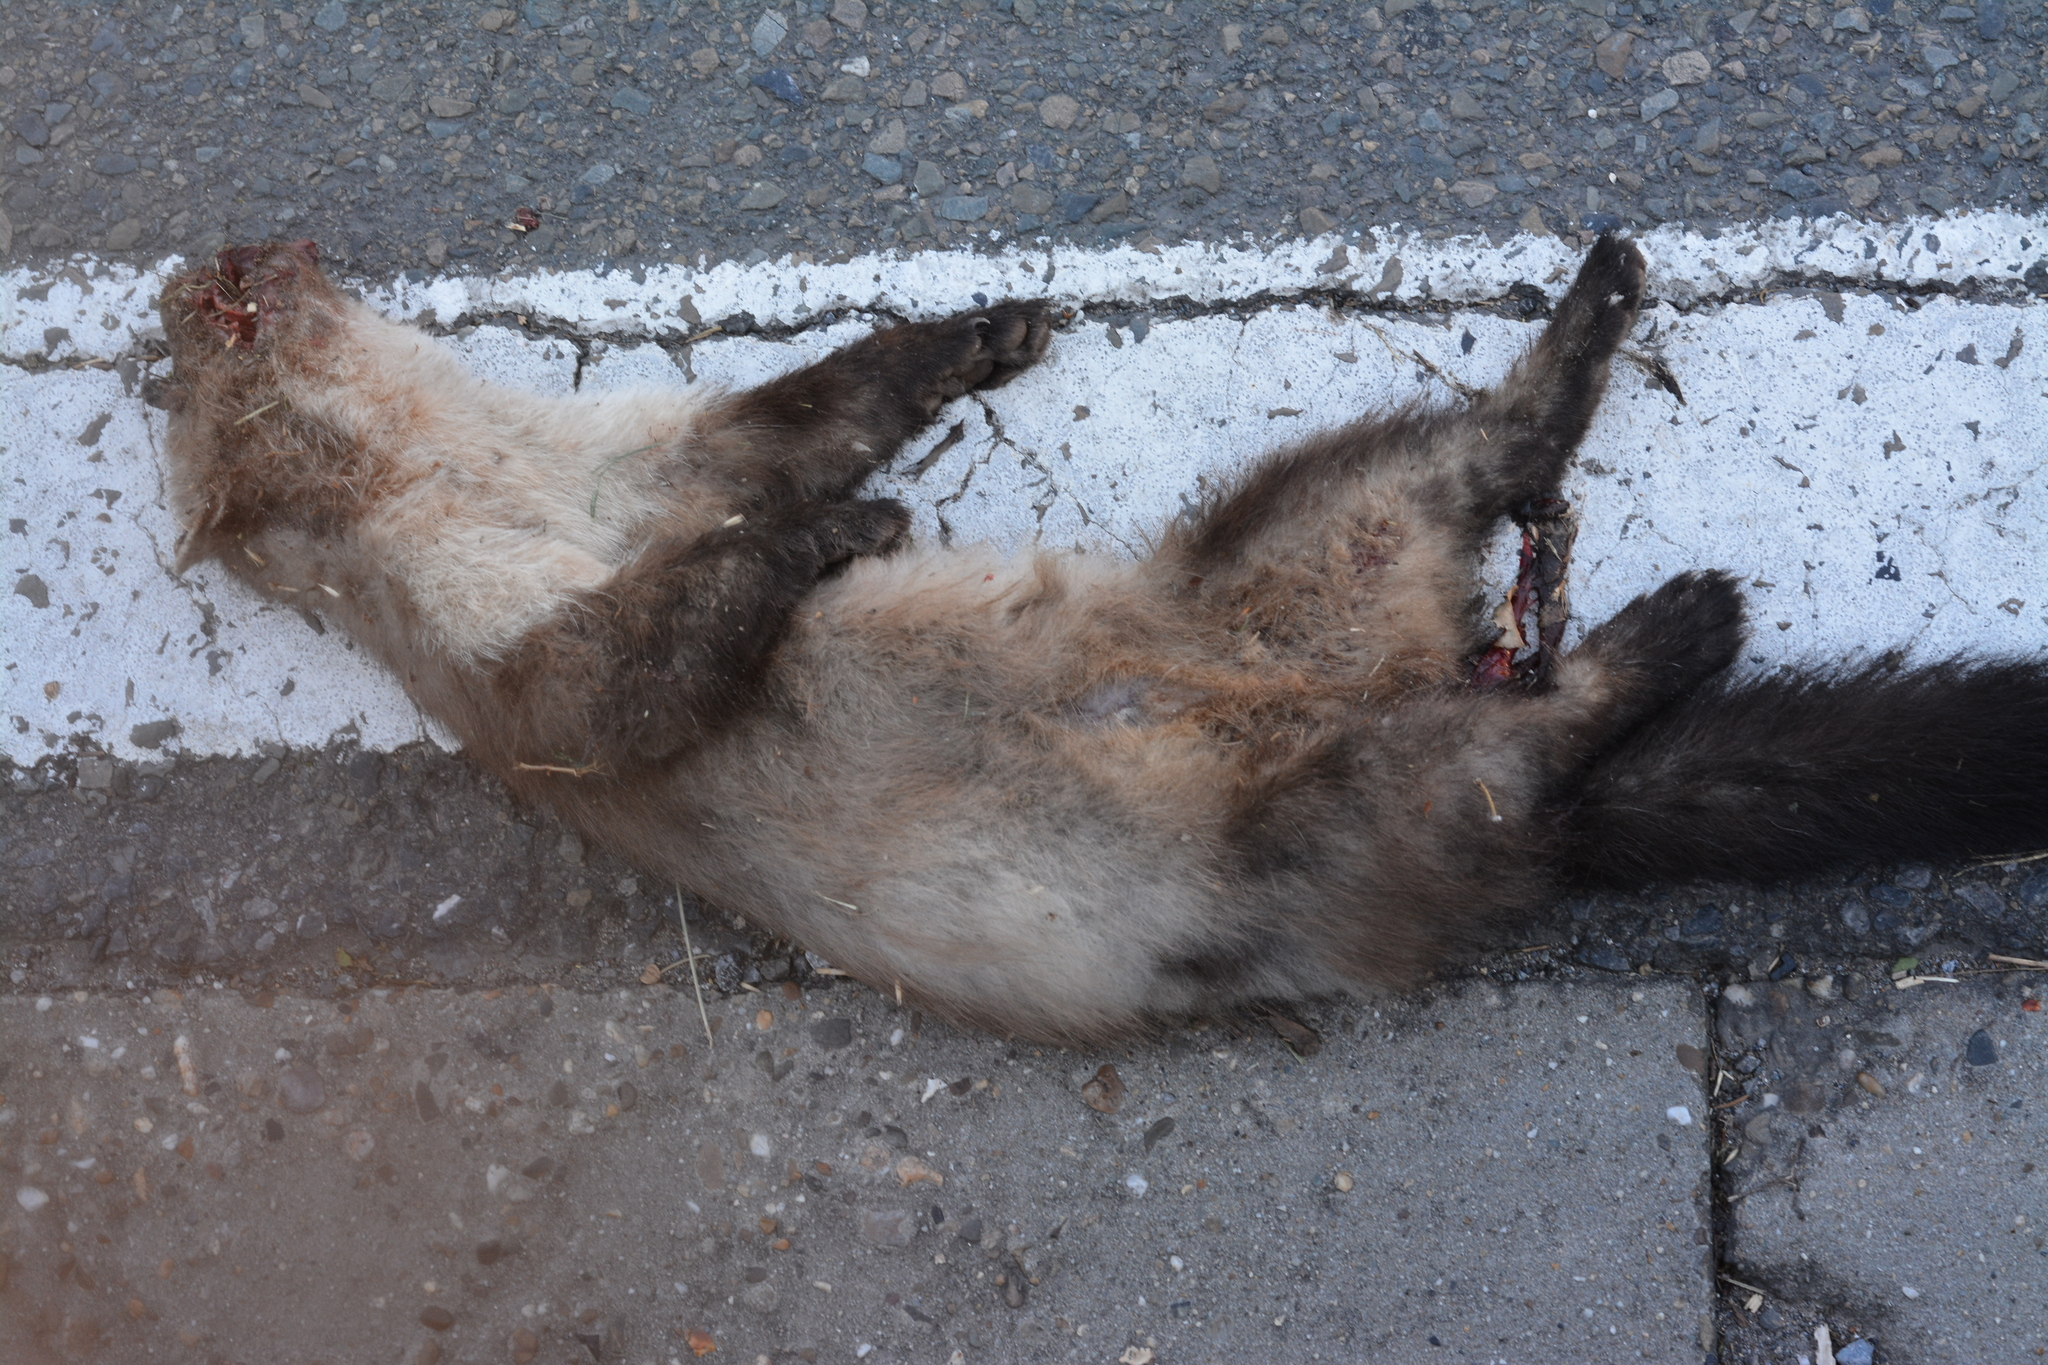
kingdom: Animalia
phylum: Chordata
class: Mammalia
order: Carnivora
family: Mustelidae
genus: Martes
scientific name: Martes foina
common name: Beech marten
